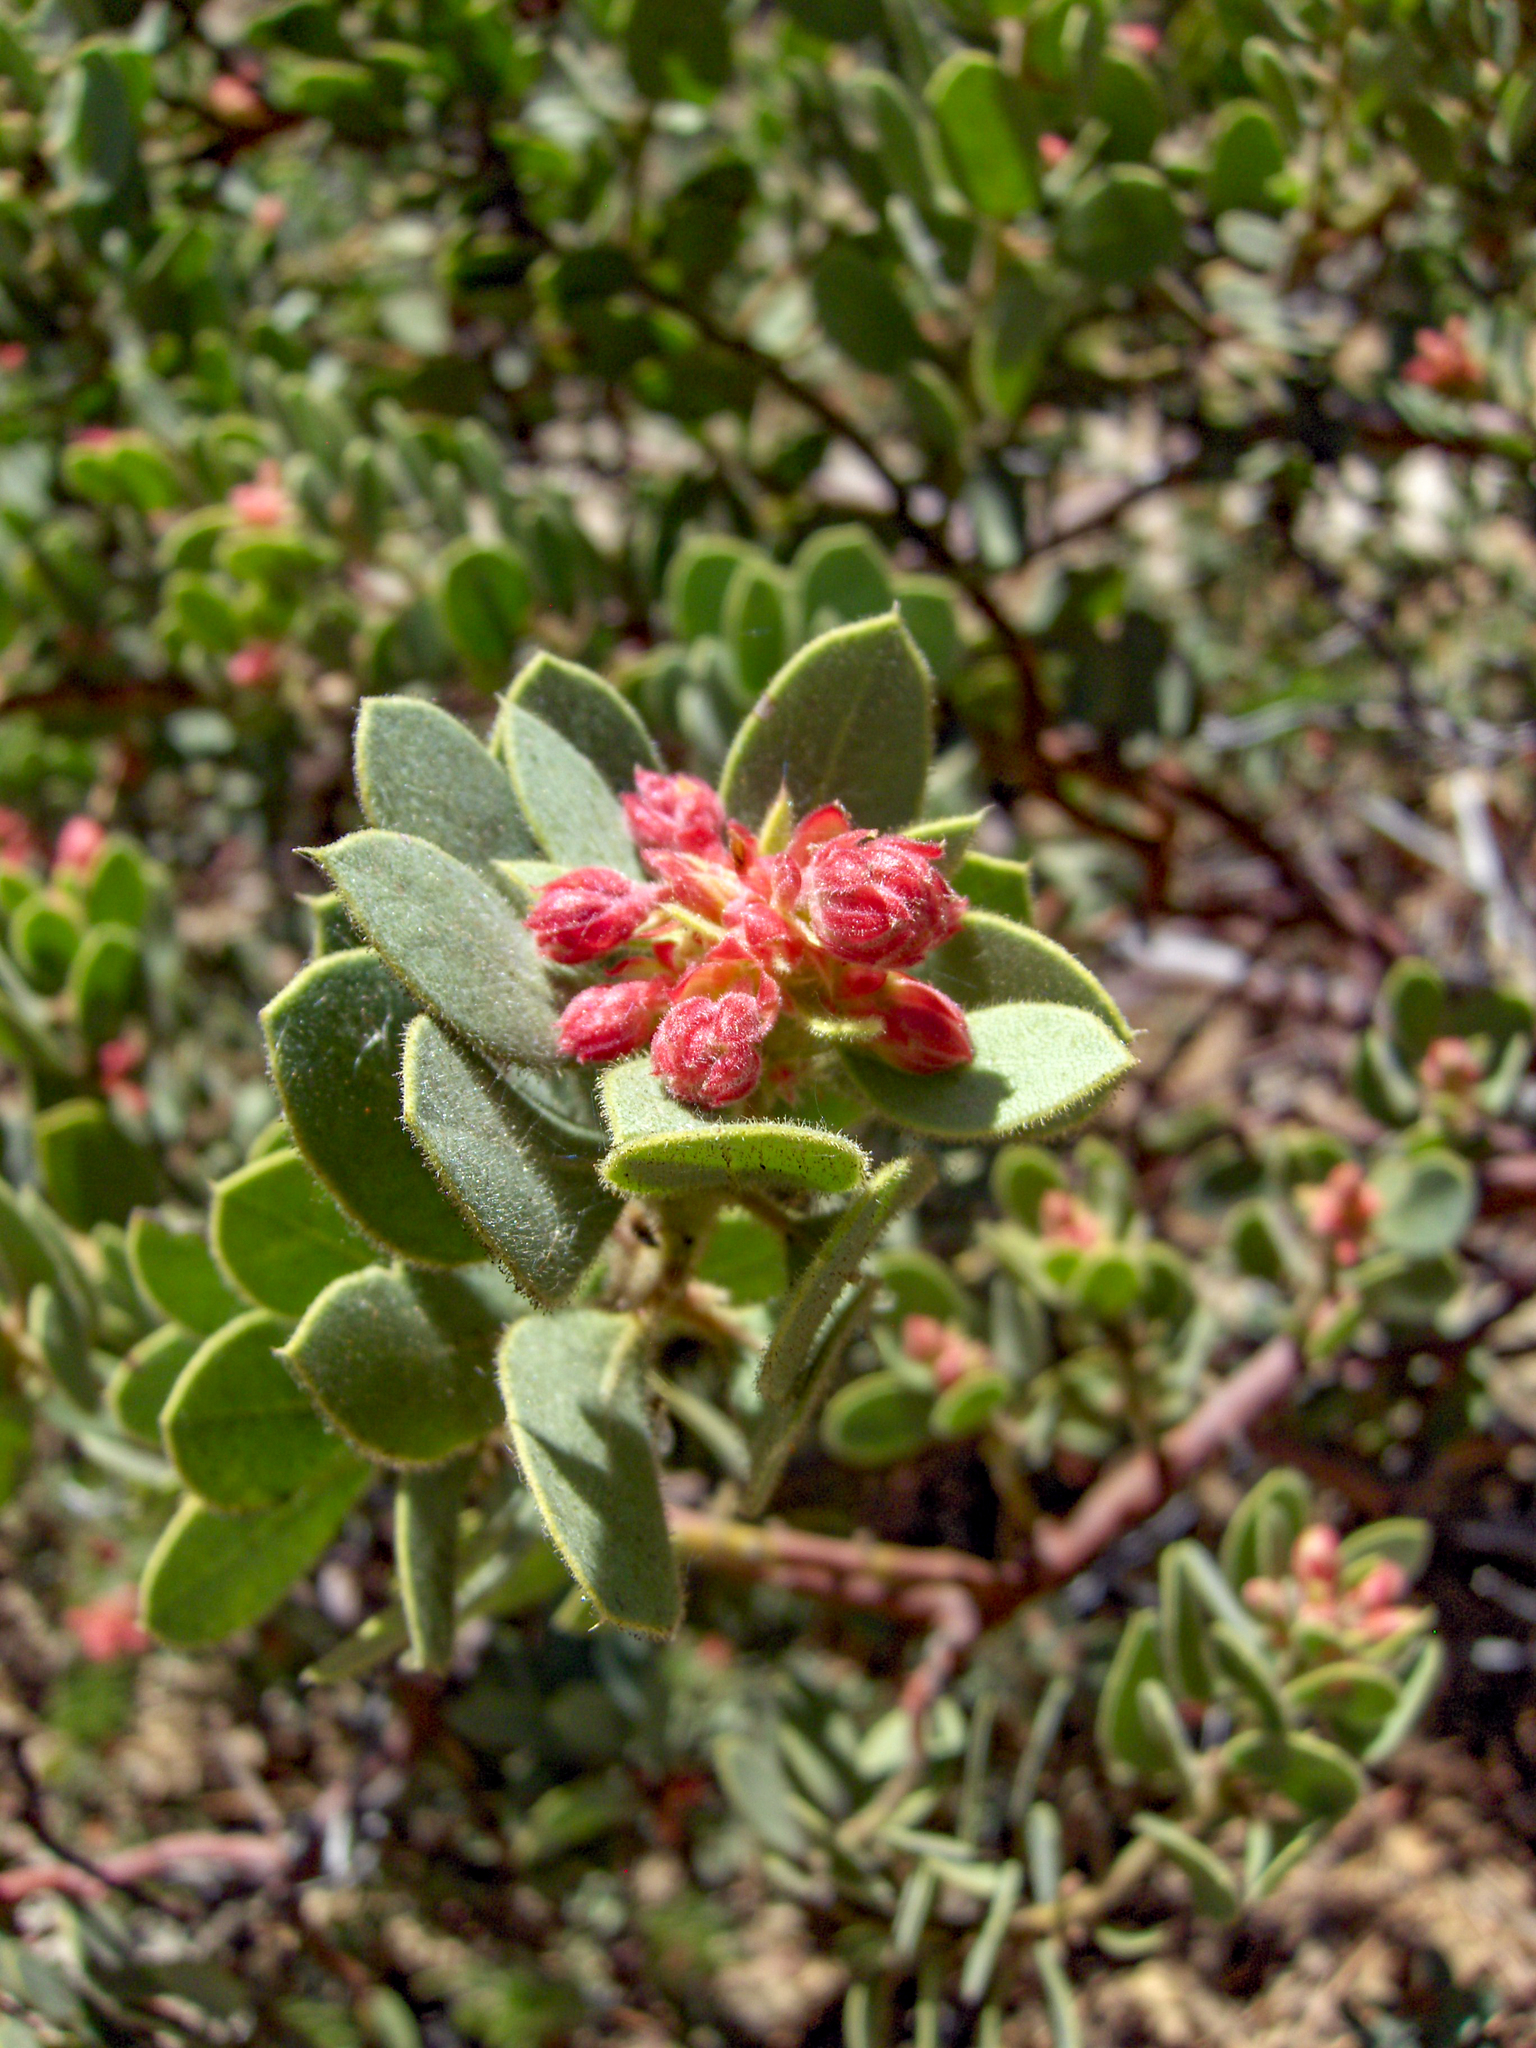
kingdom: Plantae
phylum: Tracheophyta
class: Magnoliopsida
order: Ericales
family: Ericaceae
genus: Arctostaphylos
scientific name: Arctostaphylos pringlei
